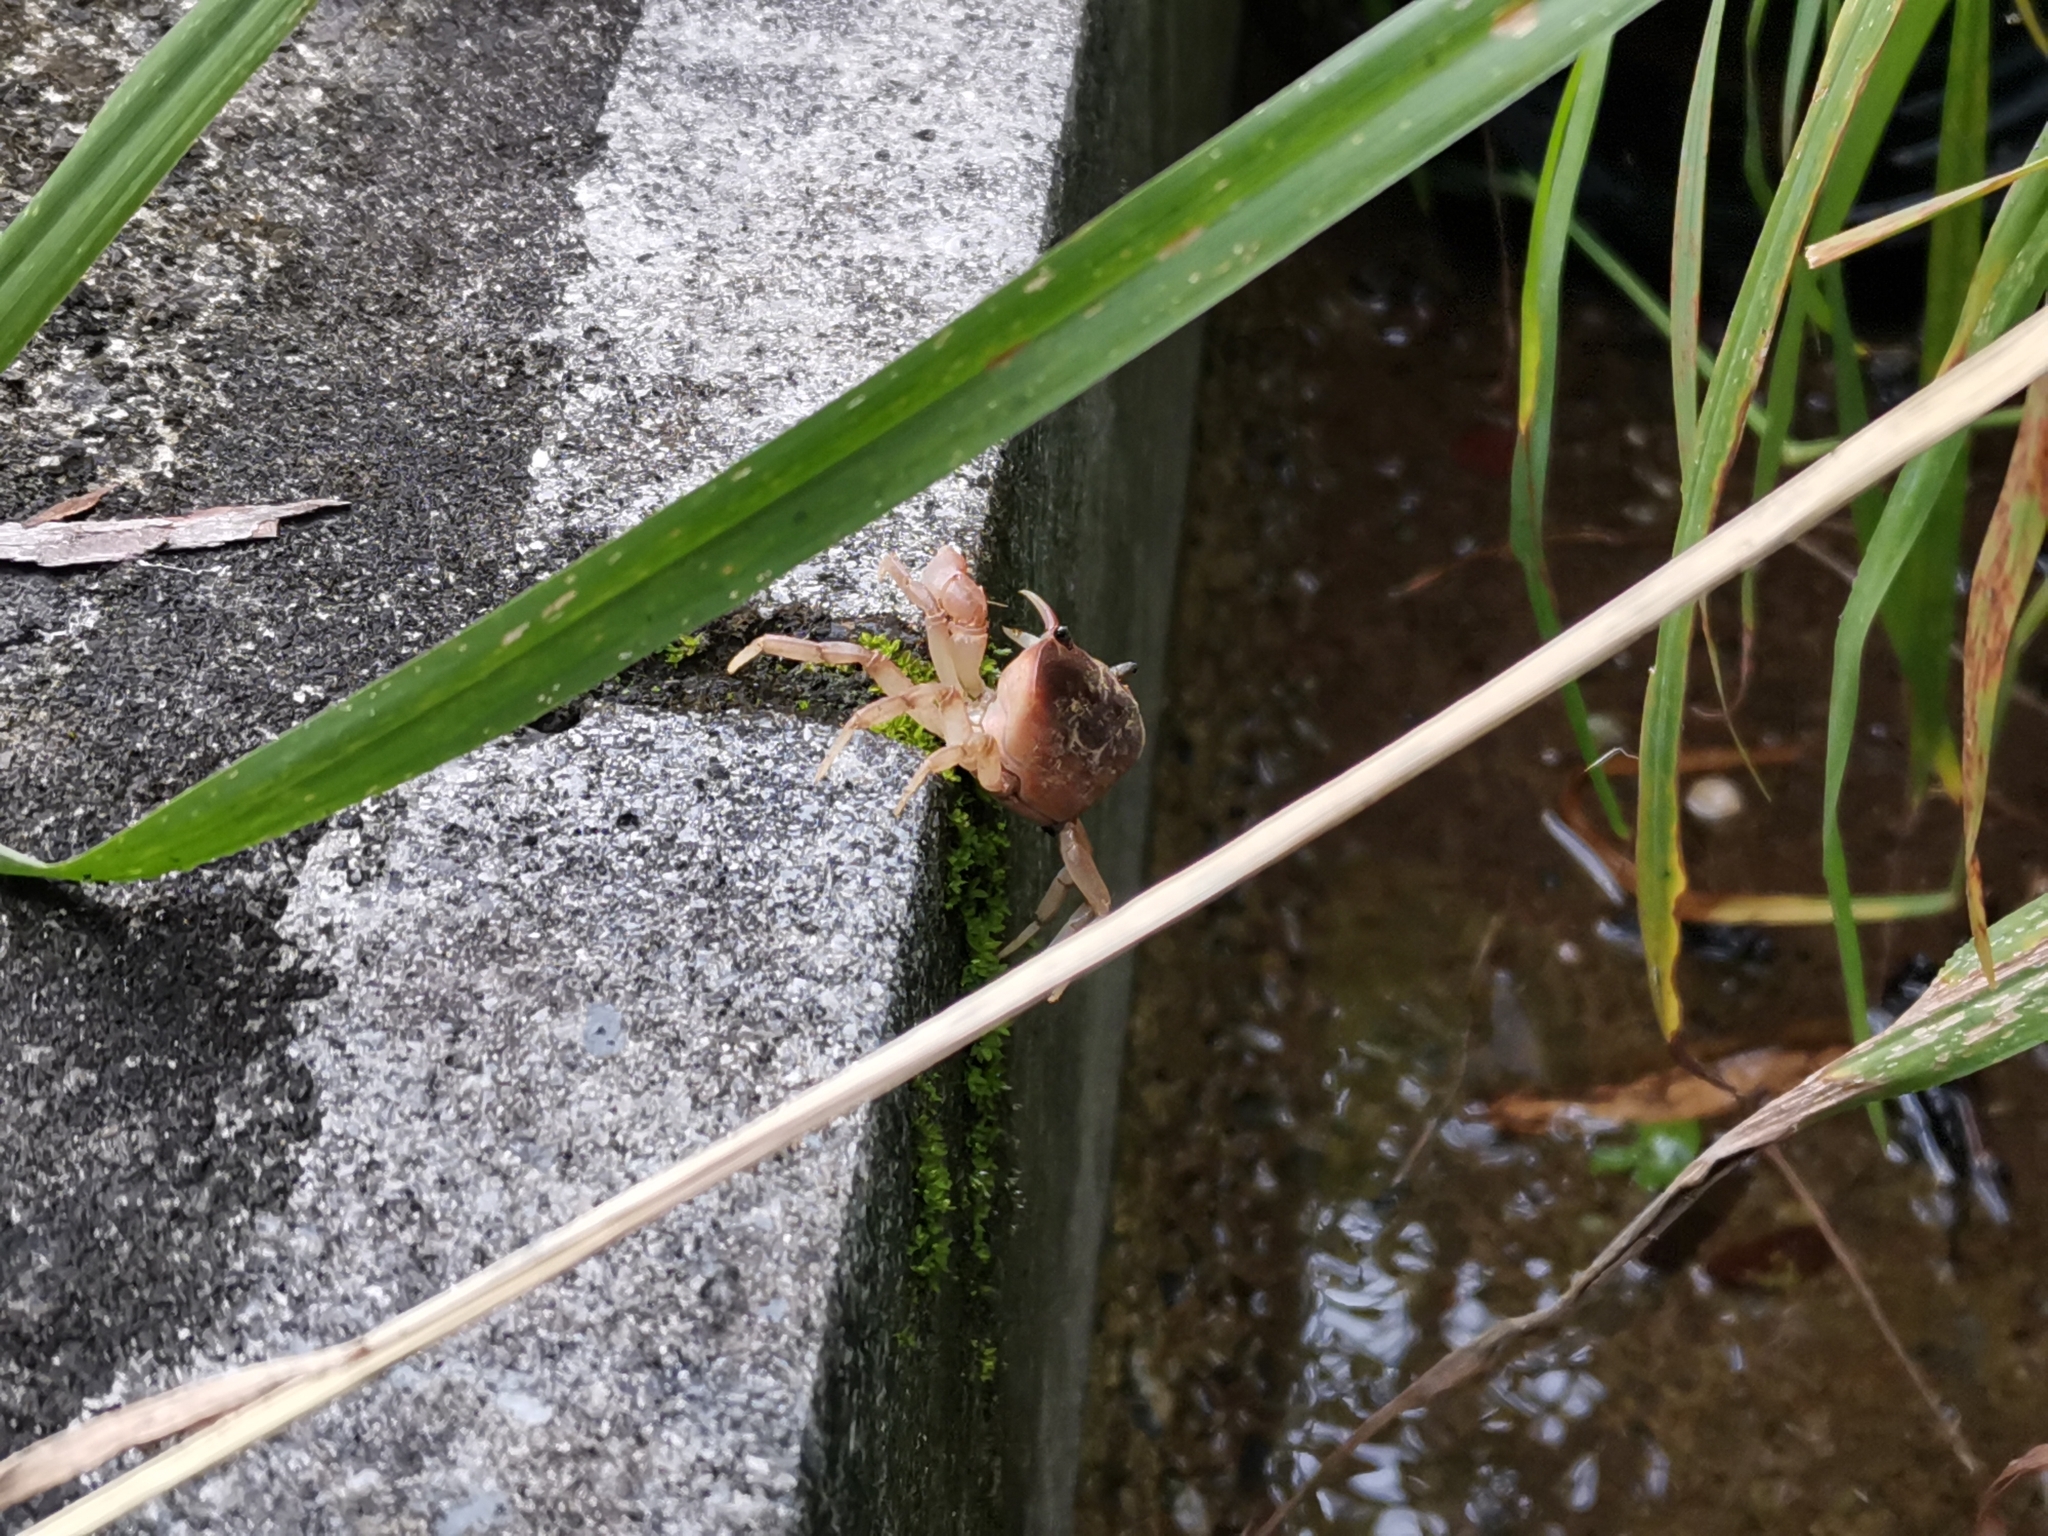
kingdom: Animalia
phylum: Arthropoda
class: Malacostraca
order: Decapoda
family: Potamidae
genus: Geothelphusa
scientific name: Geothelphusa dehaani
